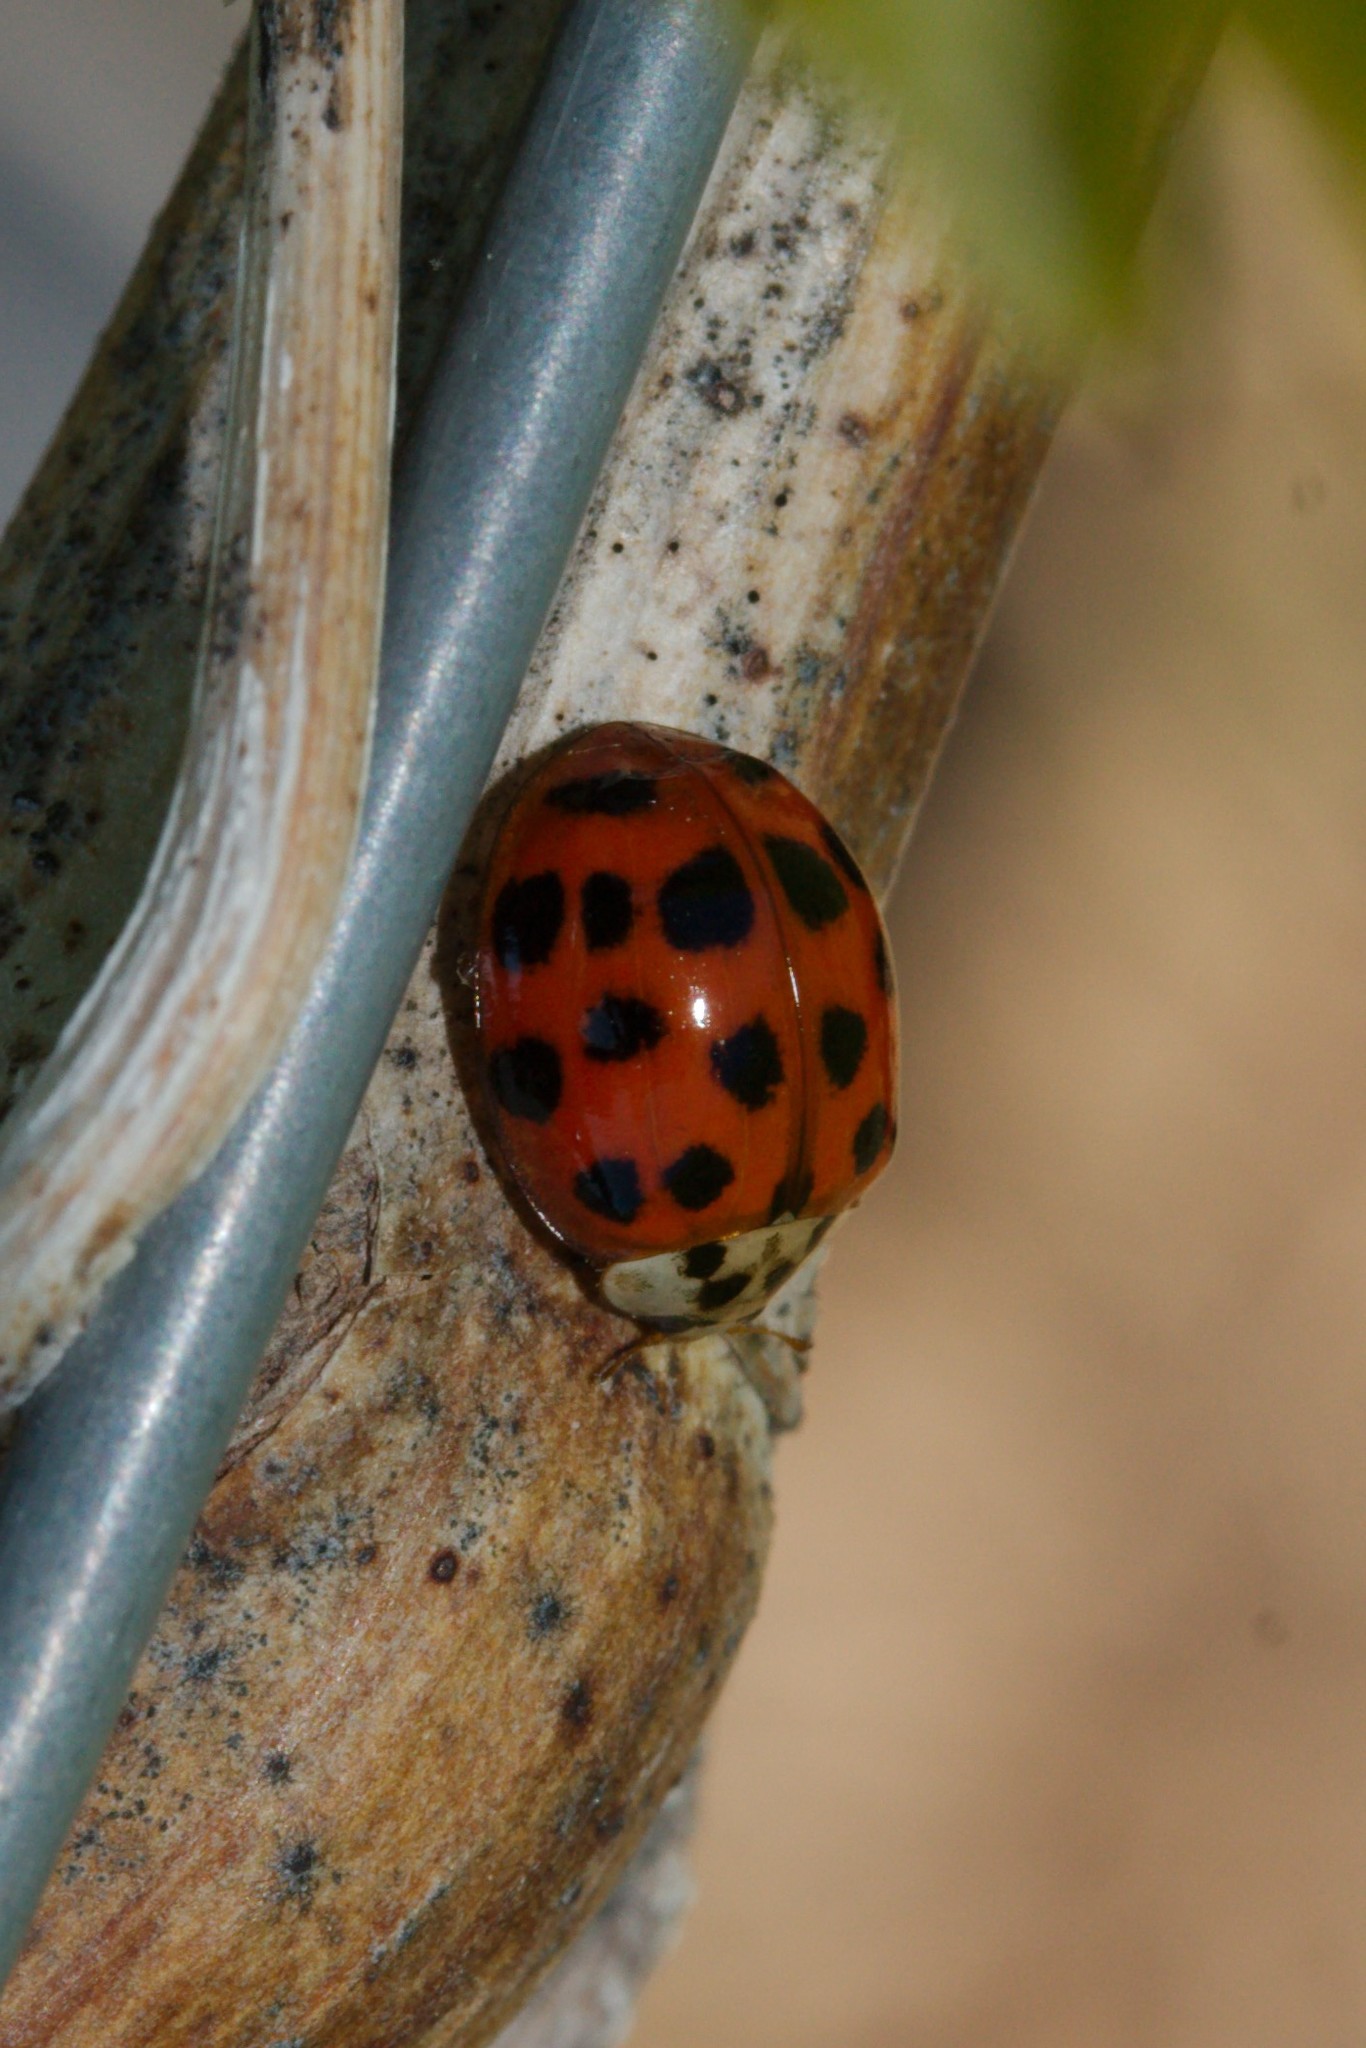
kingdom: Animalia
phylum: Arthropoda
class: Insecta
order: Coleoptera
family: Coccinellidae
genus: Harmonia
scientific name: Harmonia axyridis
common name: Harlequin ladybird
